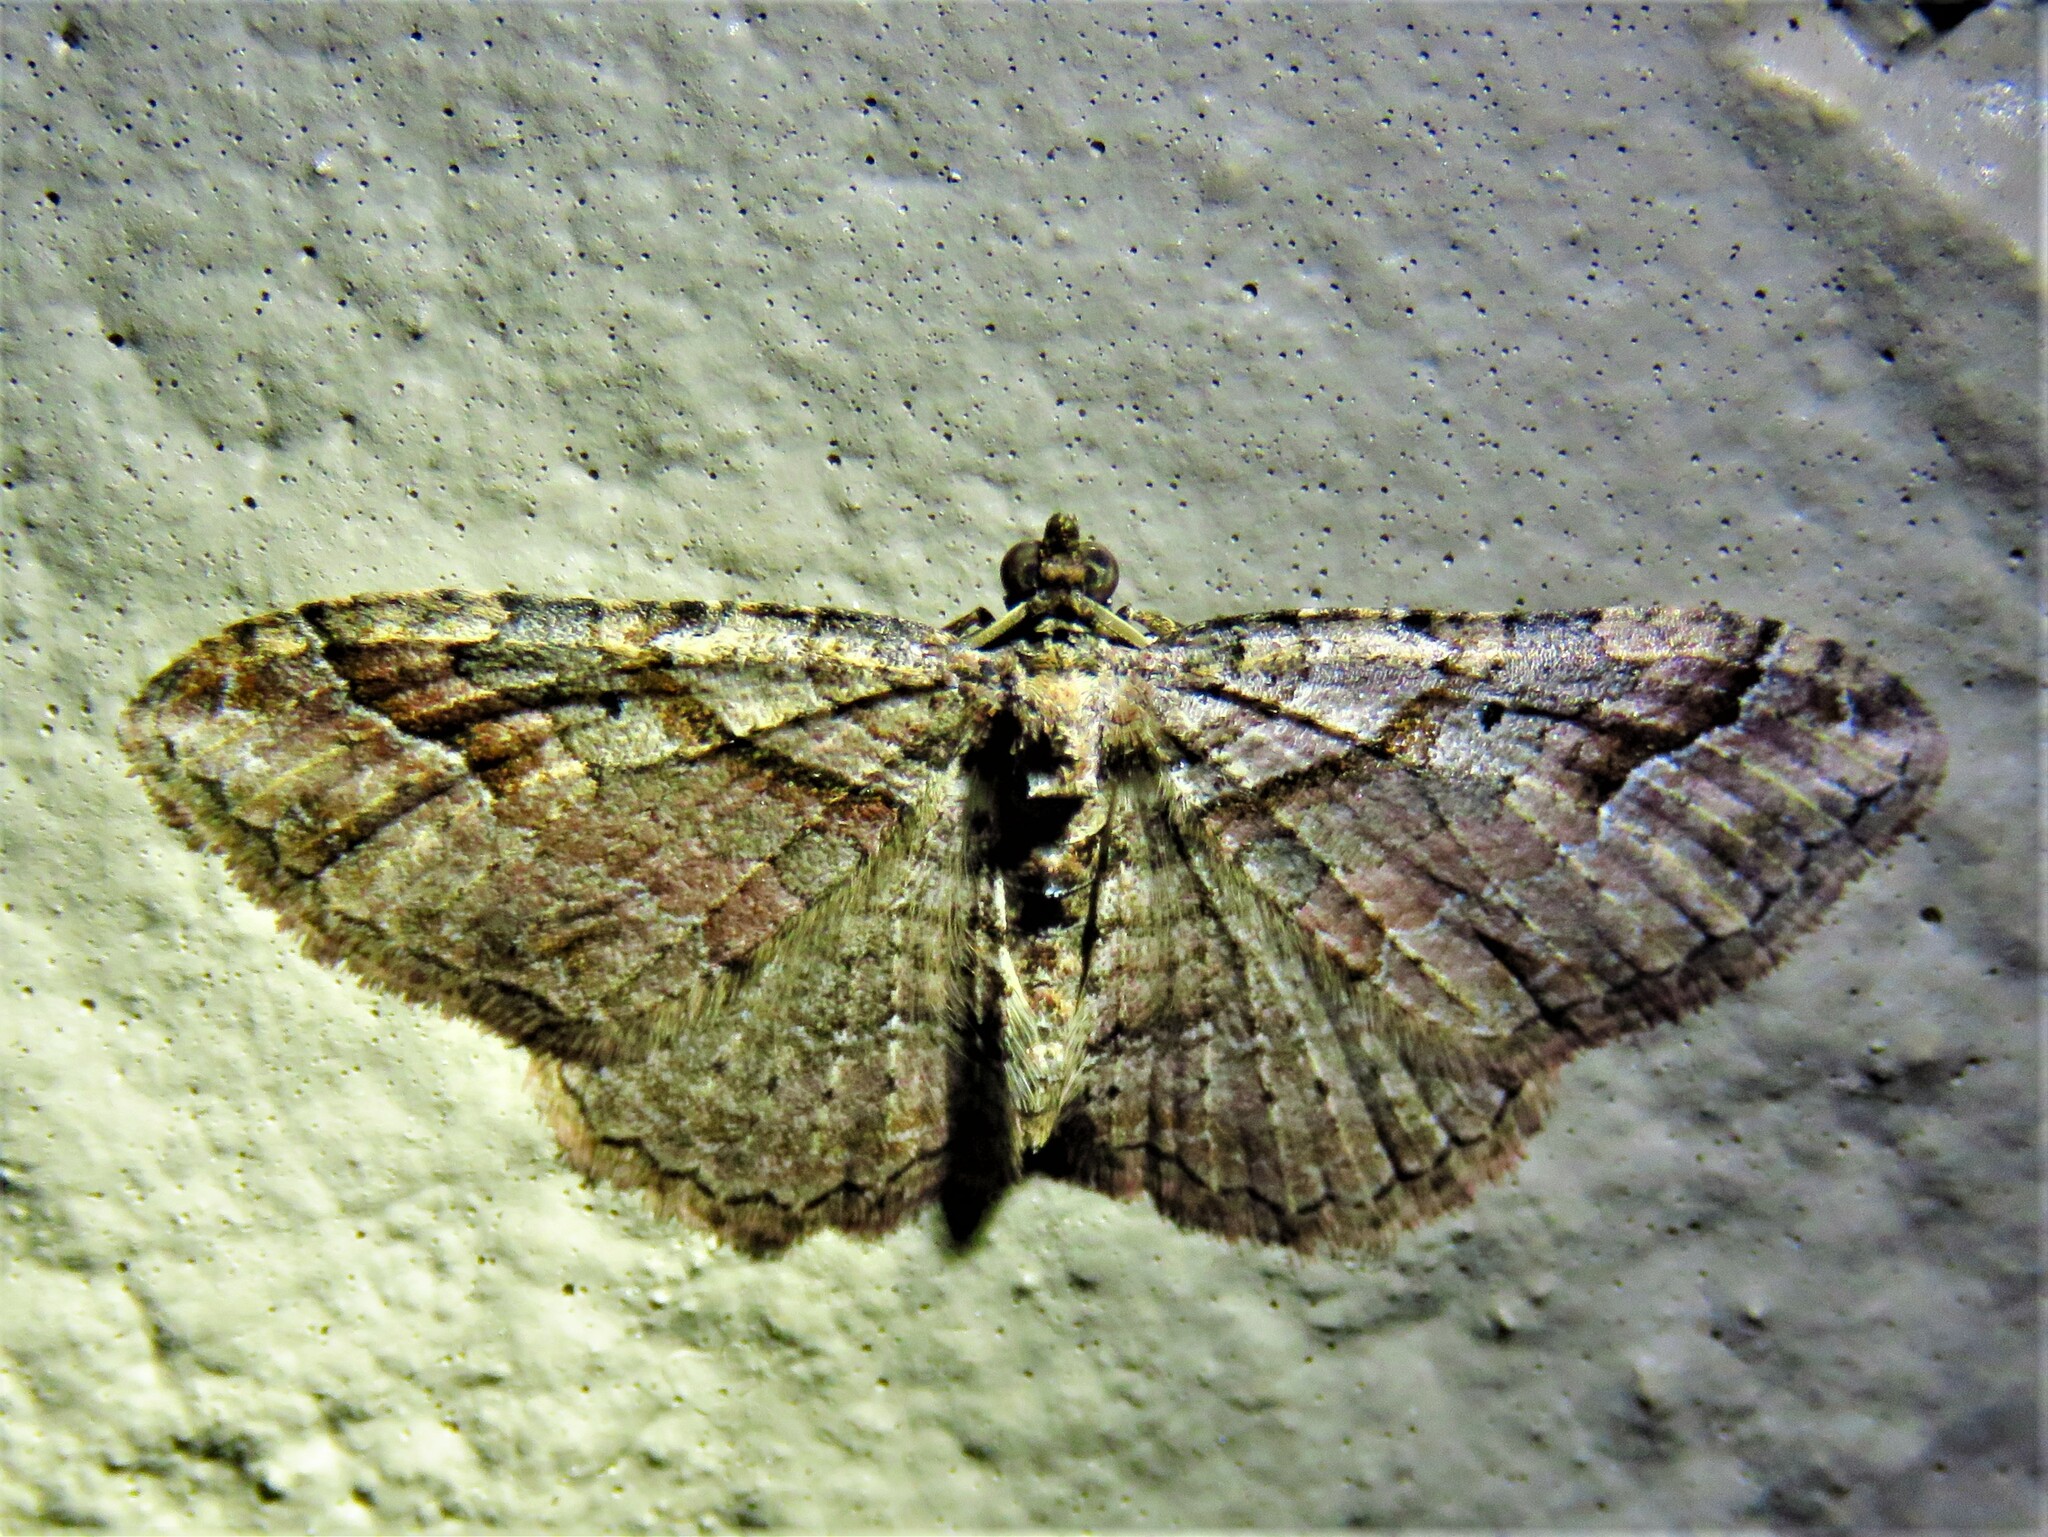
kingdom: Animalia
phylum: Arthropoda
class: Insecta
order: Lepidoptera
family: Geometridae
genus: Costaconvexa
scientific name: Costaconvexa centrostrigaria
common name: Bent-line carpet
